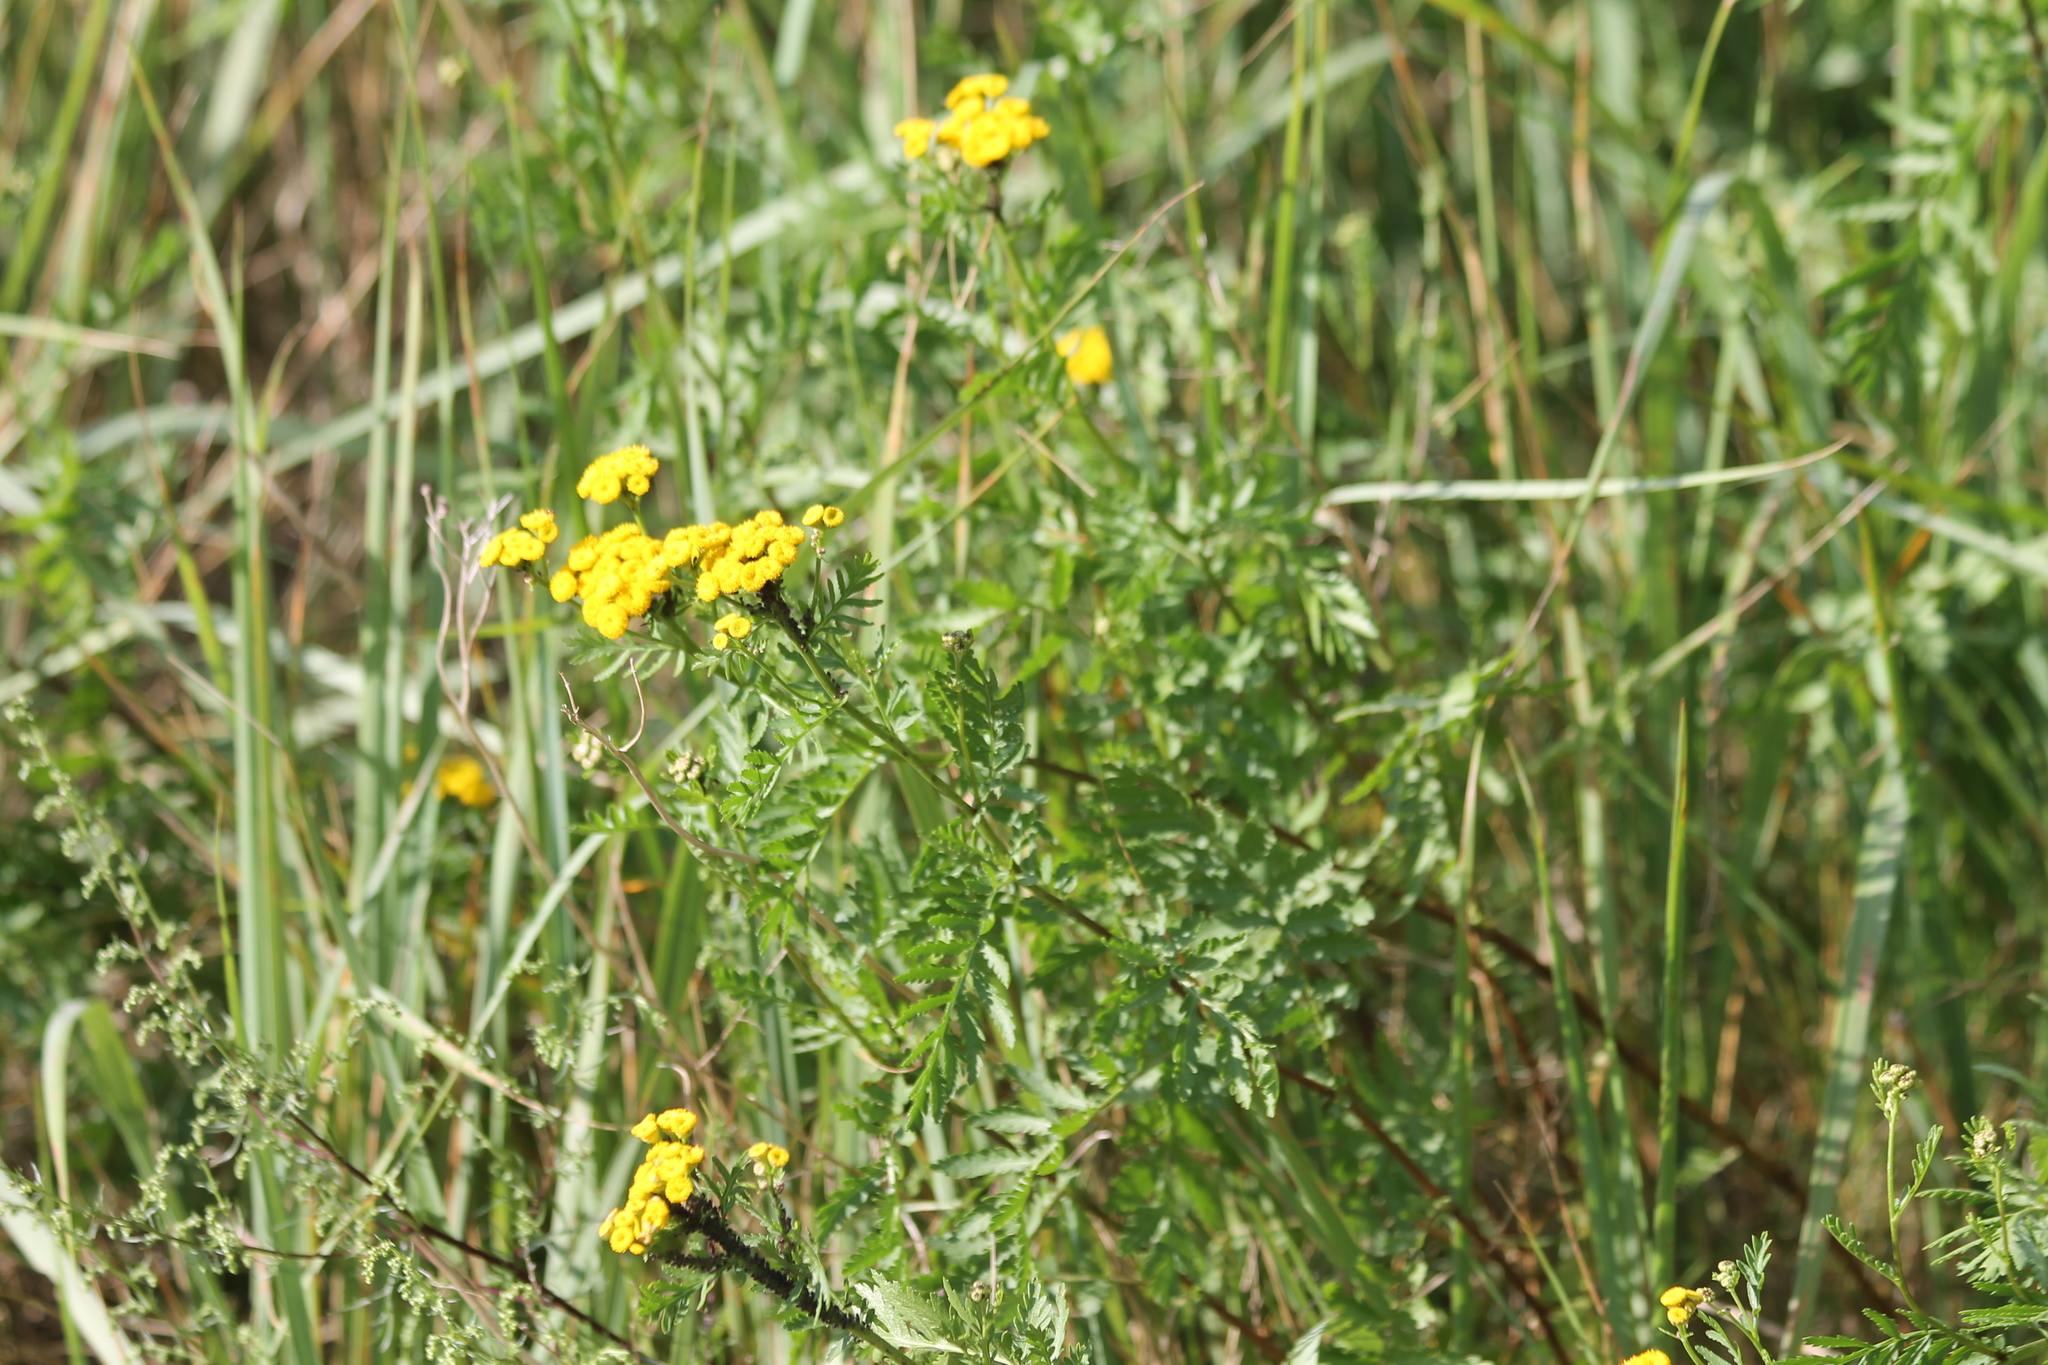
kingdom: Plantae
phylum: Tracheophyta
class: Magnoliopsida
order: Asterales
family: Asteraceae
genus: Tanacetum
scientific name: Tanacetum vulgare
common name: Common tansy
